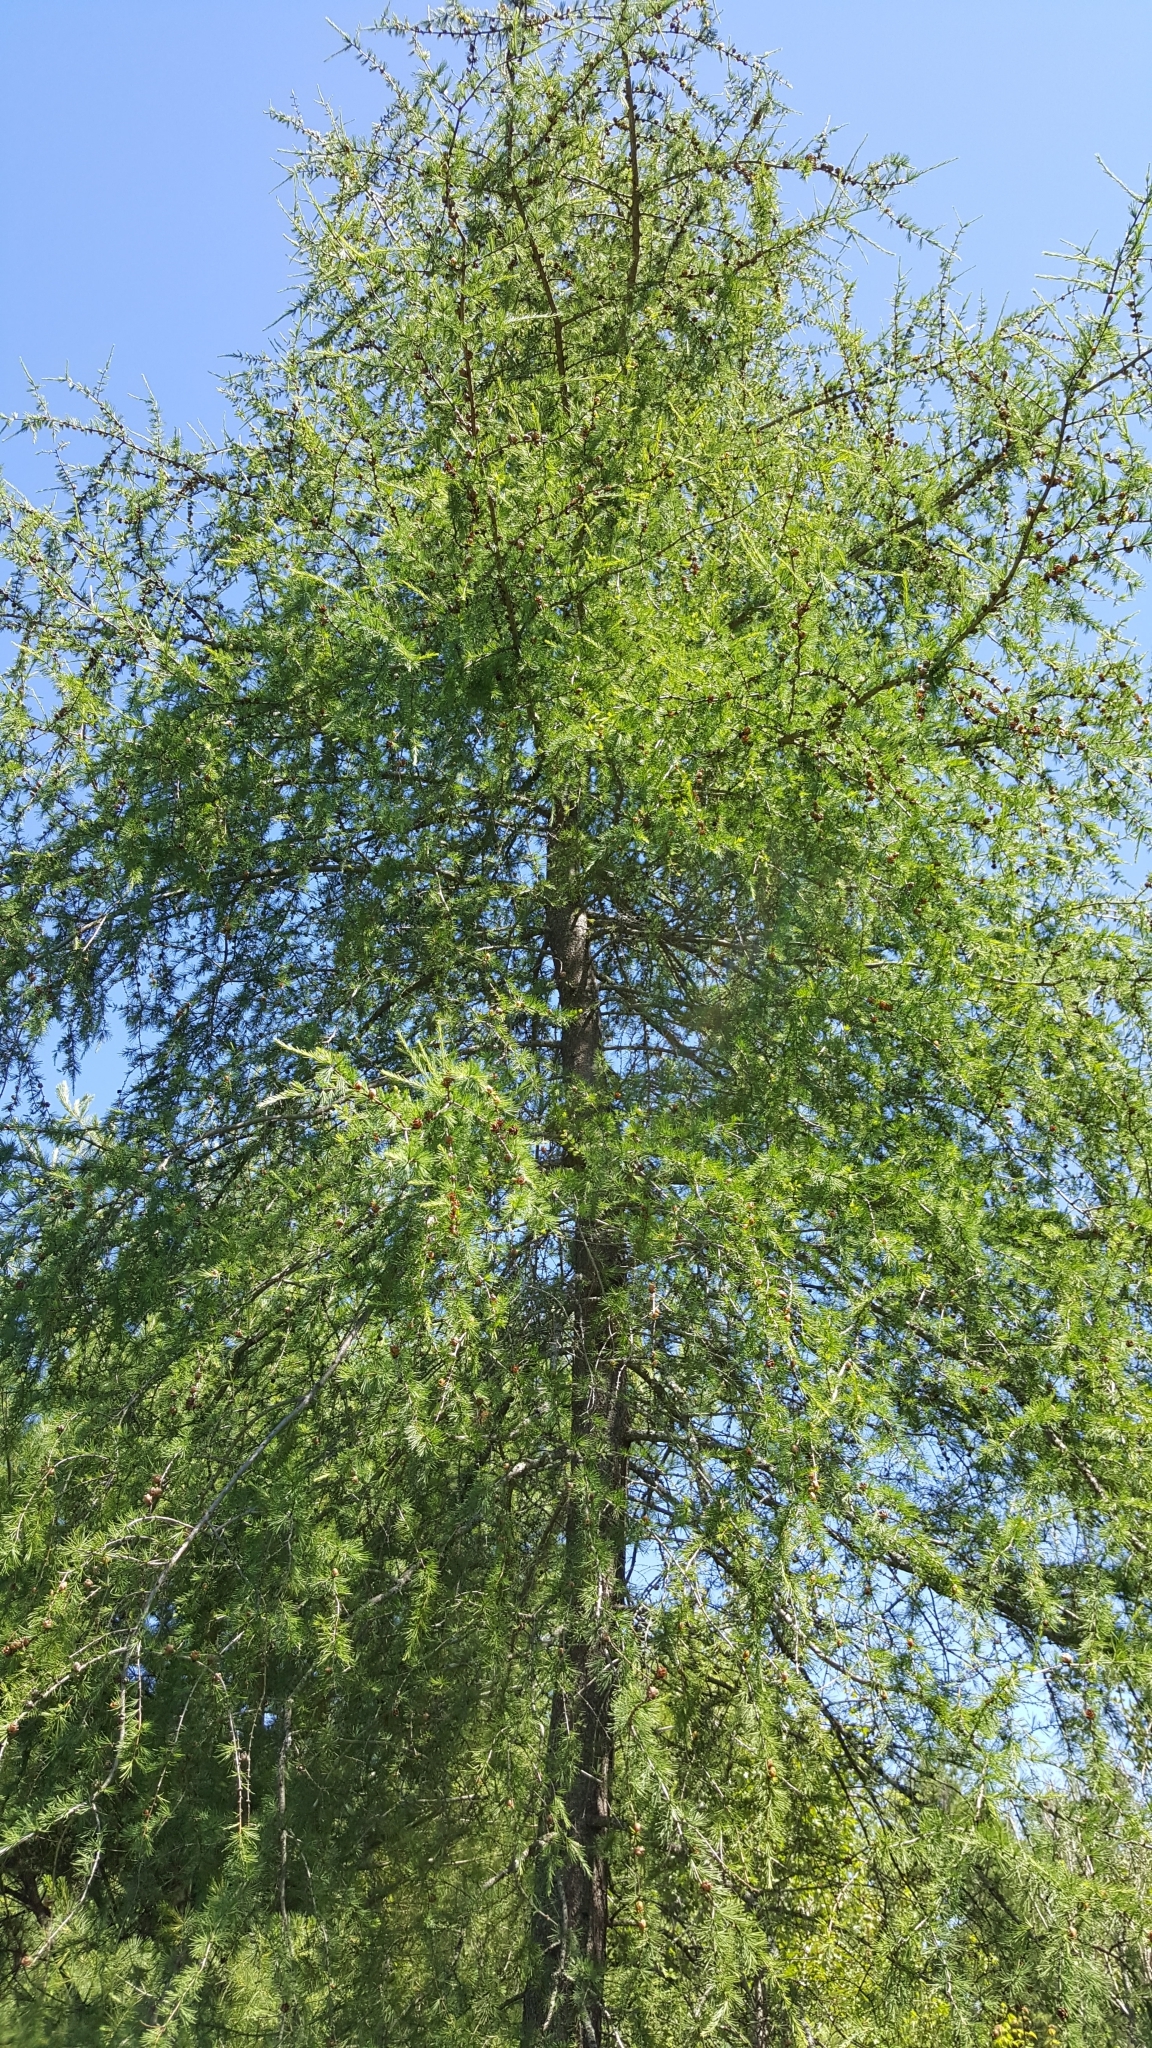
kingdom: Plantae
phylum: Tracheophyta
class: Pinopsida
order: Pinales
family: Pinaceae
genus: Larix
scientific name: Larix laricina
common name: American larch
